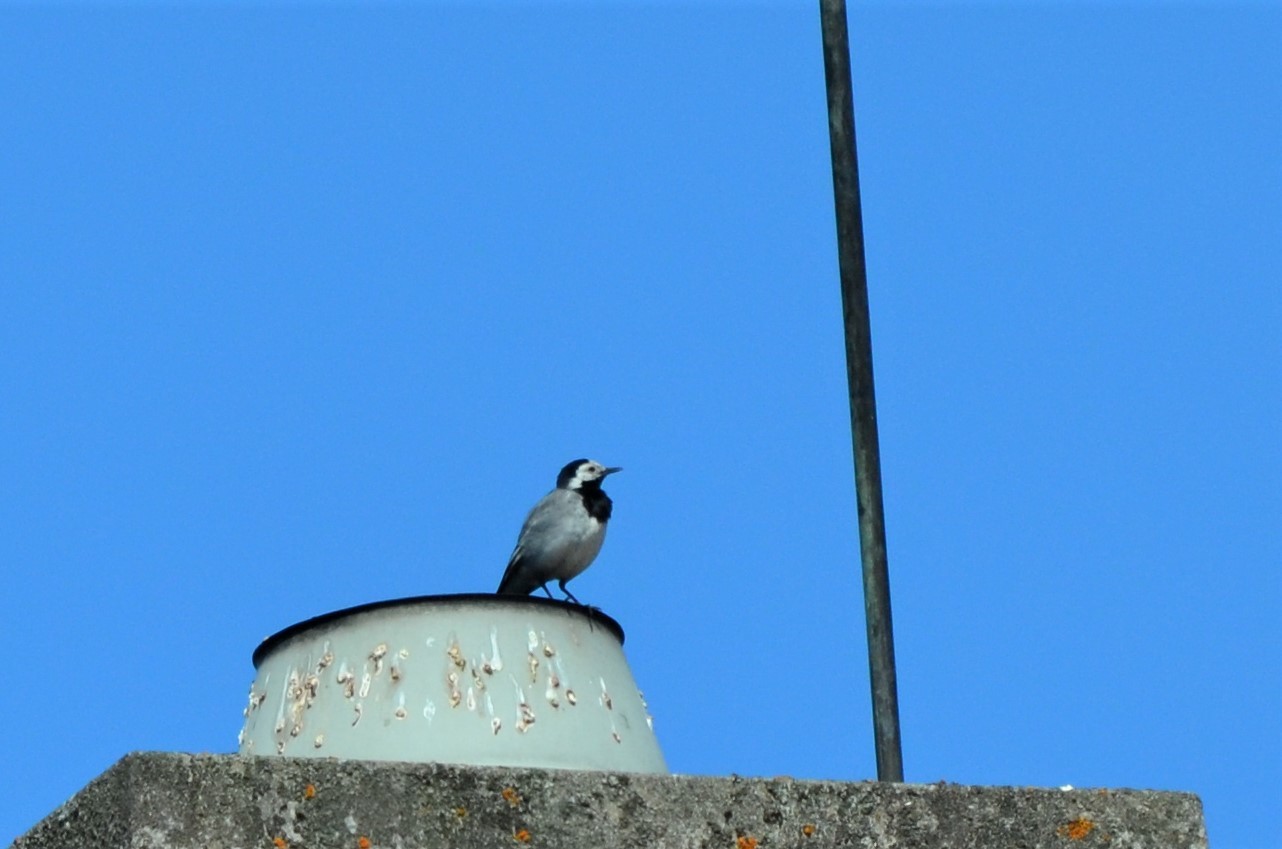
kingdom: Animalia
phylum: Chordata
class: Aves
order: Passeriformes
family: Motacillidae
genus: Motacilla
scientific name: Motacilla alba
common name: White wagtail
